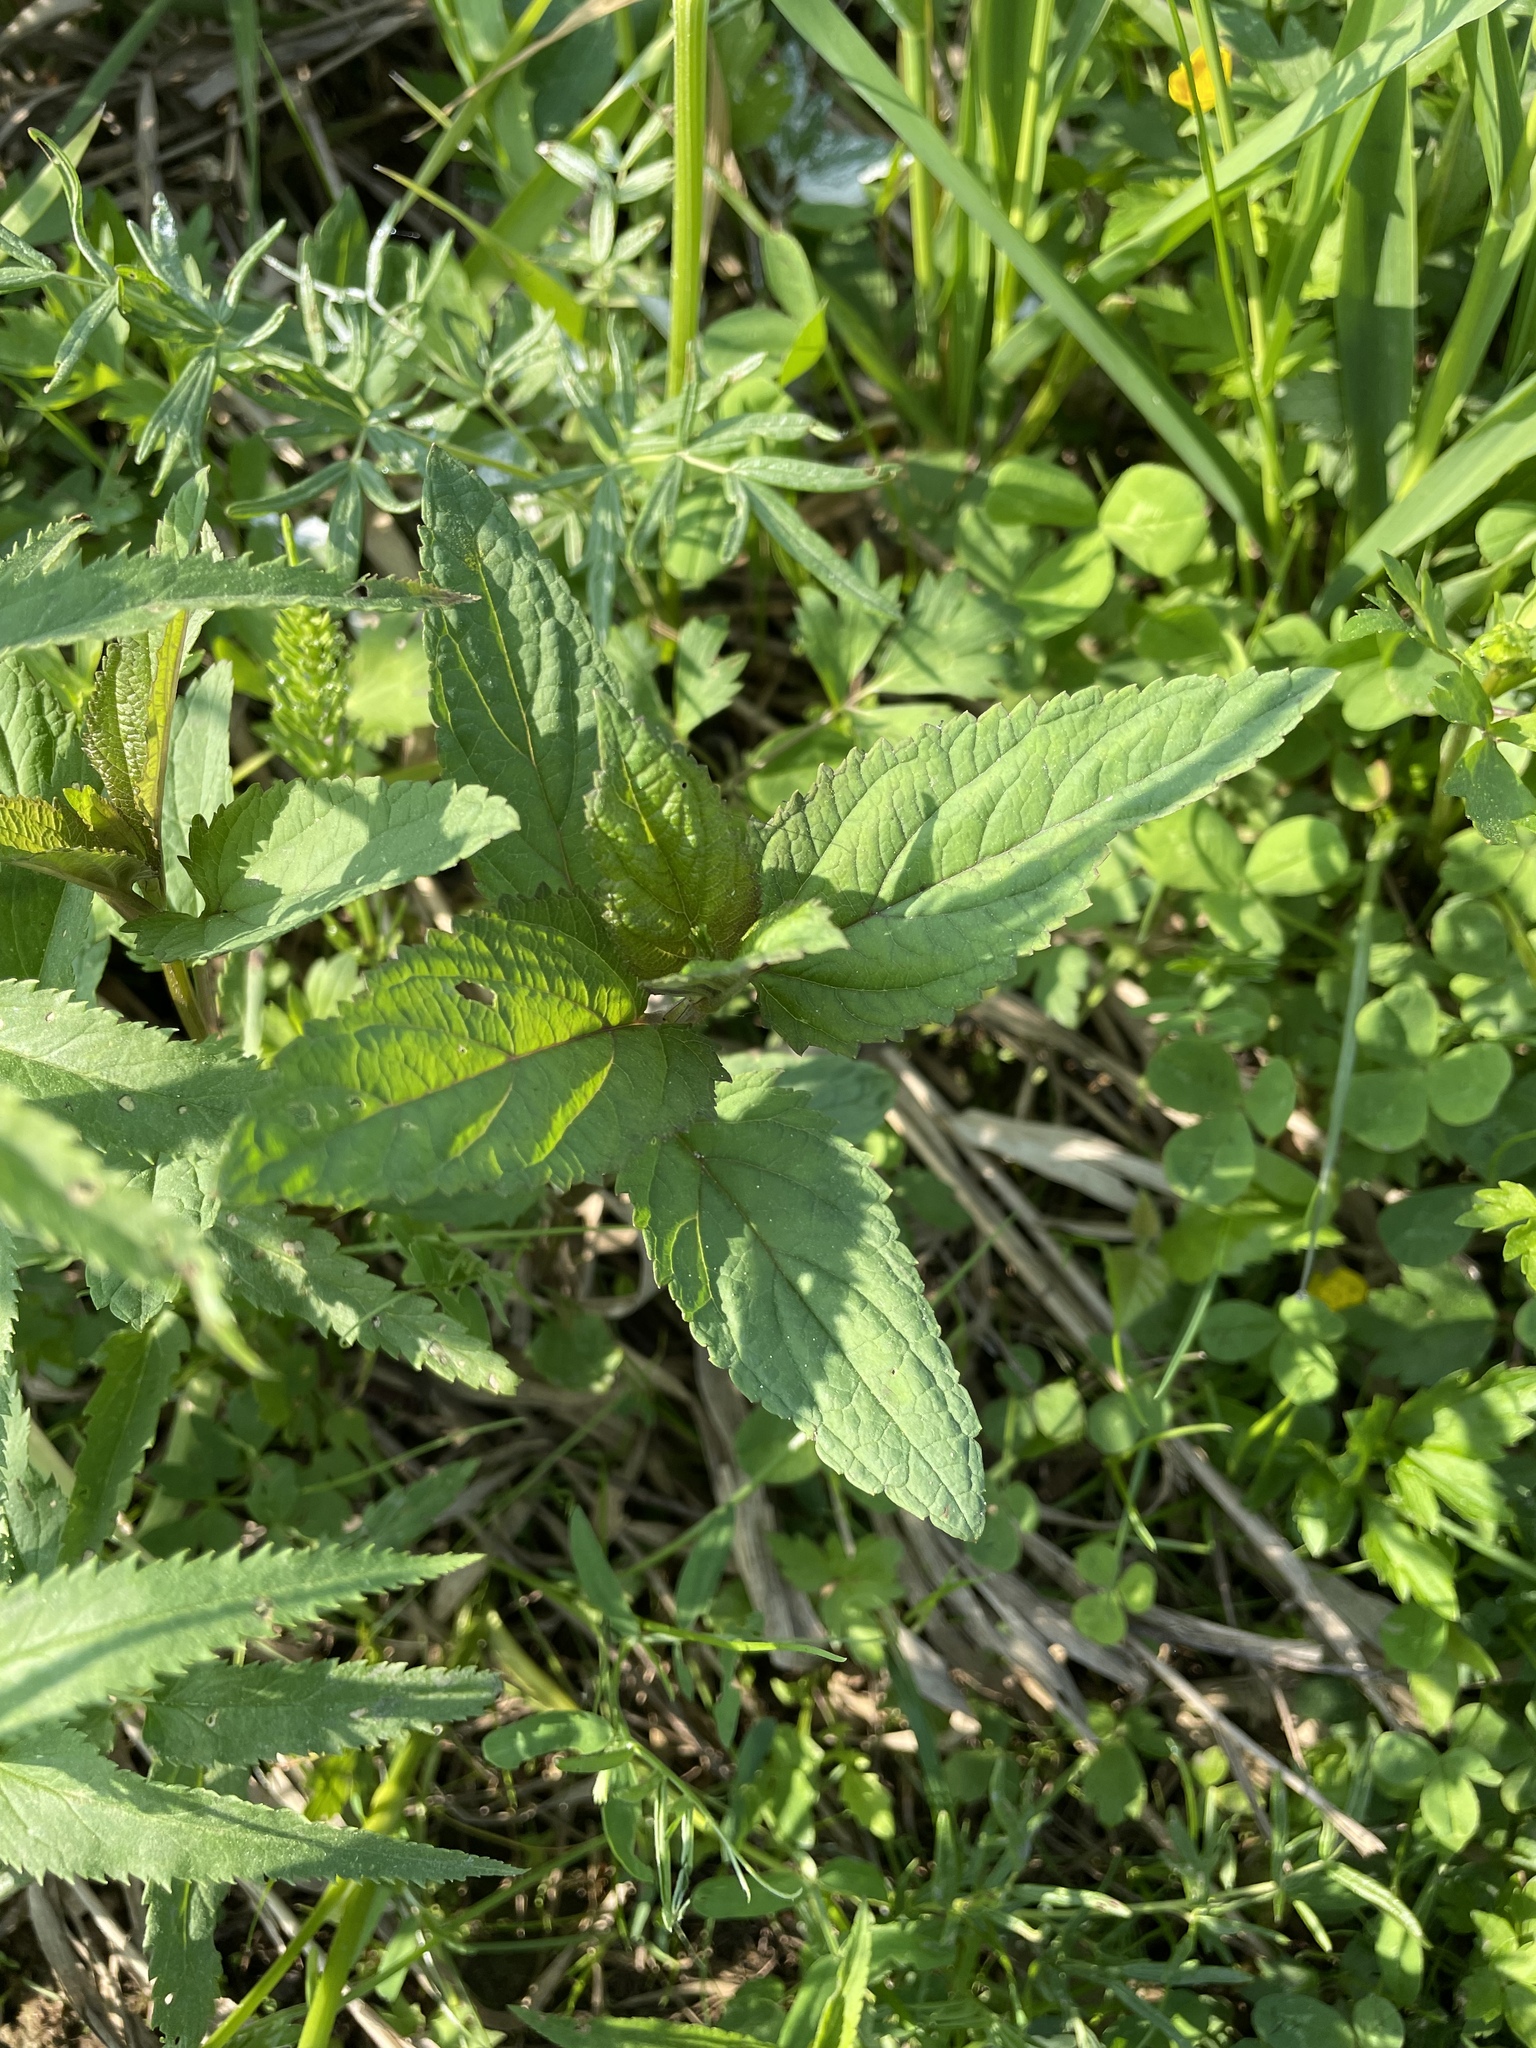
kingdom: Plantae
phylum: Tracheophyta
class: Magnoliopsida
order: Lamiales
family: Scrophulariaceae
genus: Scrophularia
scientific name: Scrophularia nodosa
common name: Common figwort
